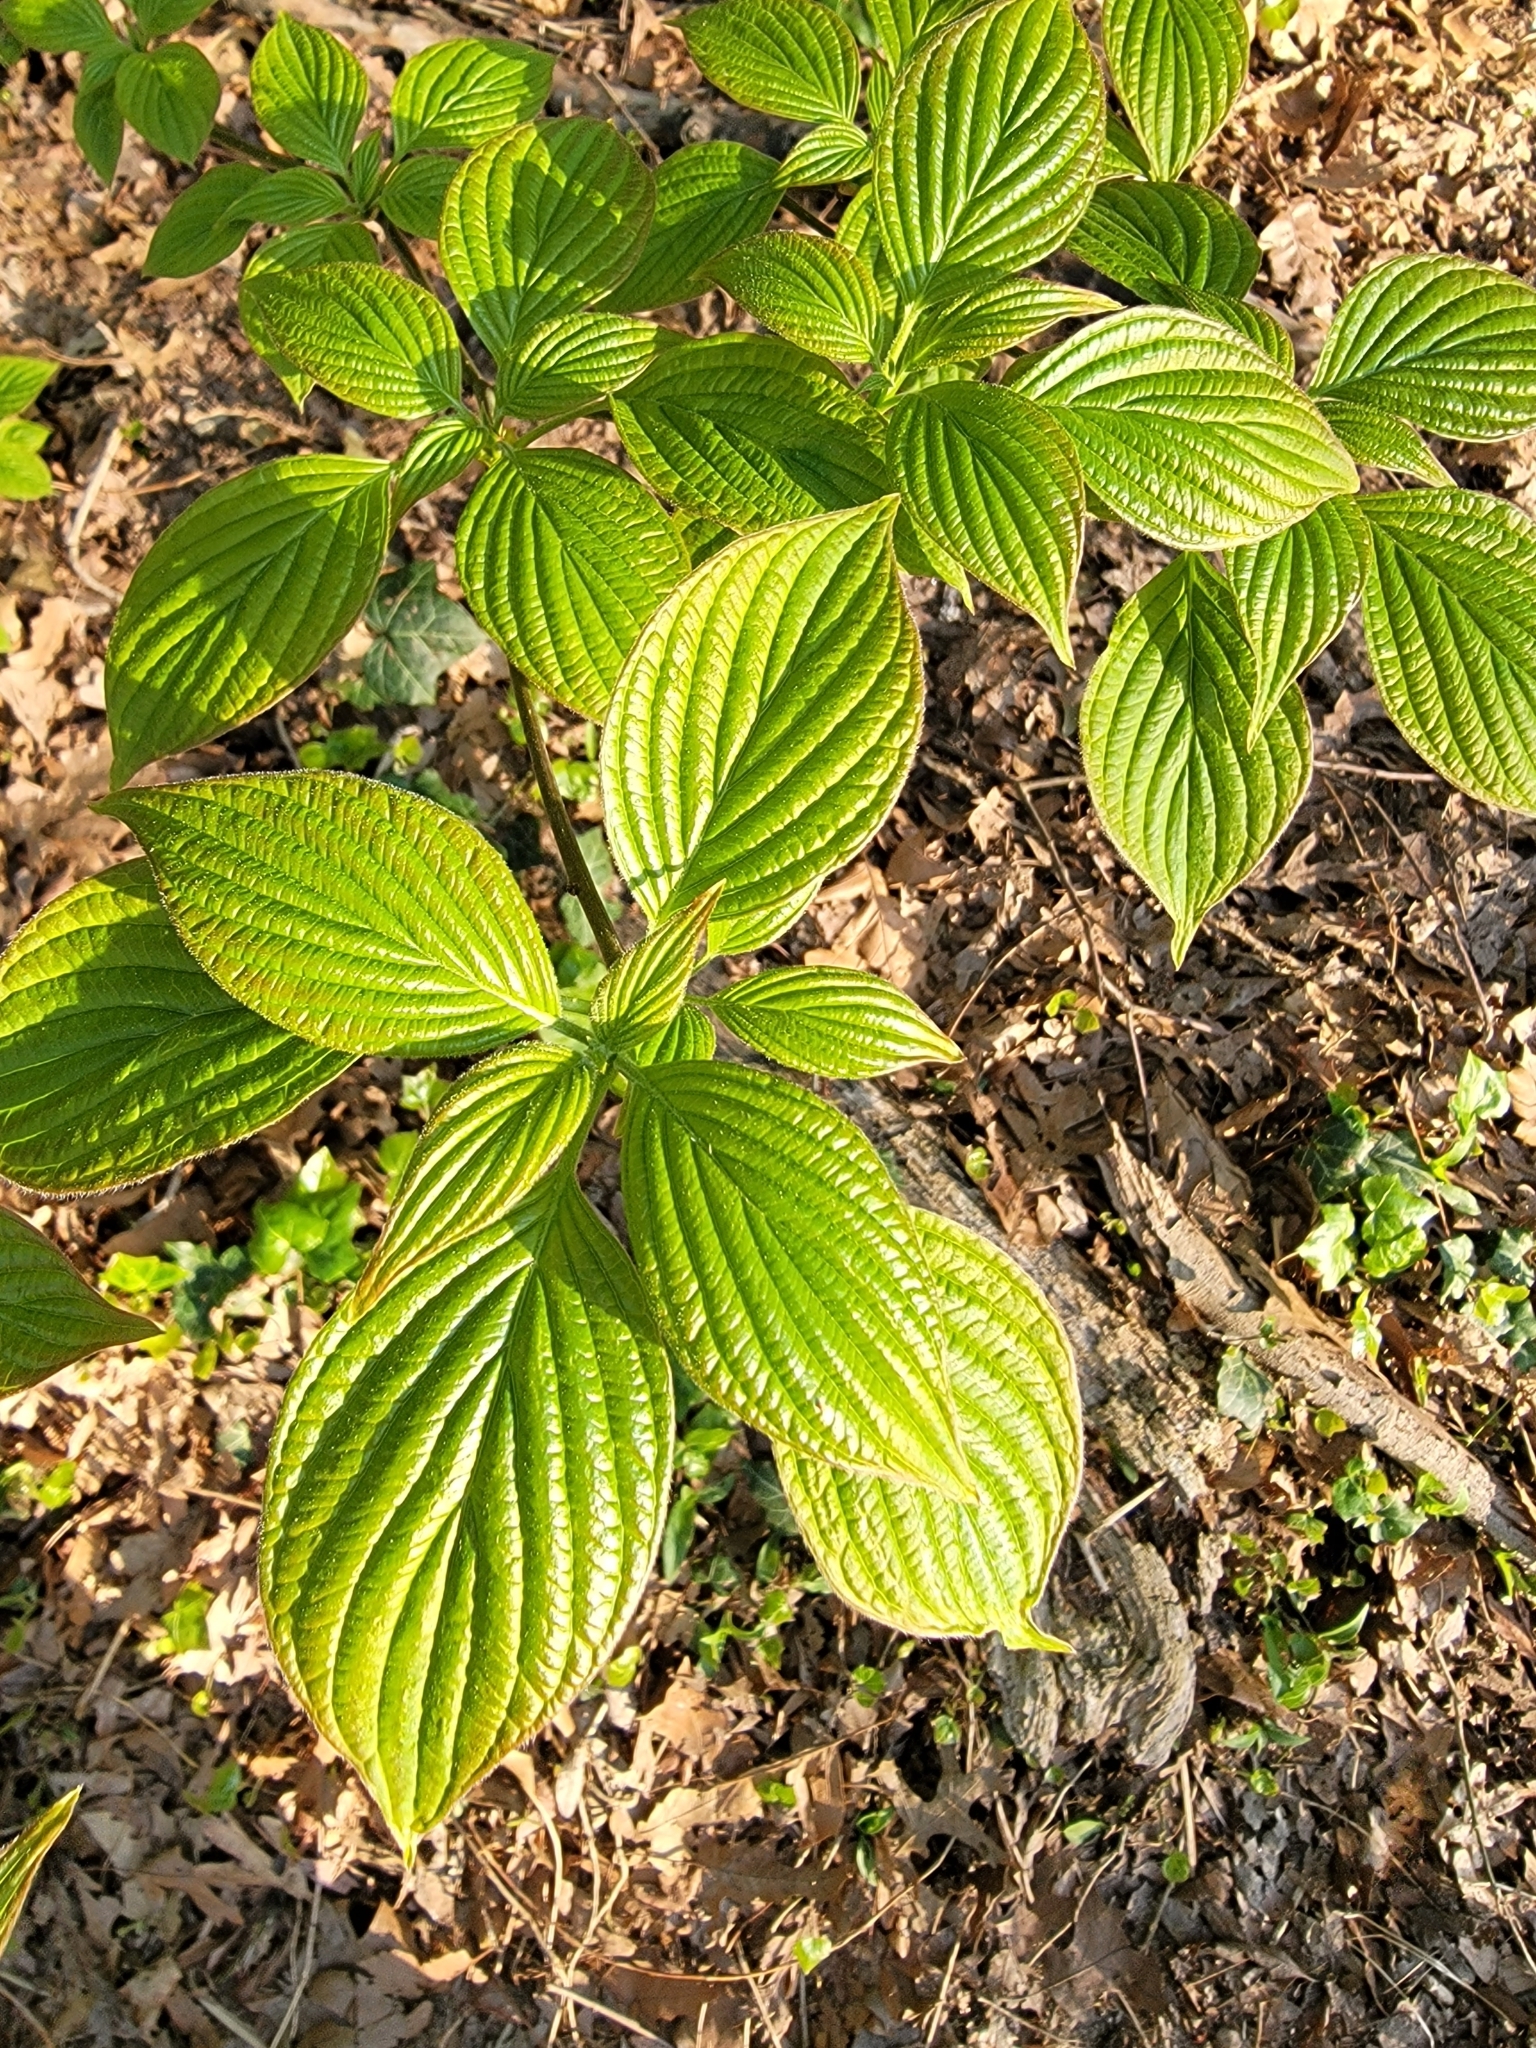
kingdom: Plantae
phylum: Tracheophyta
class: Magnoliopsida
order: Cornales
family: Cornaceae
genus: Cornus
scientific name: Cornus alternifolia
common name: Pagoda dogwood
